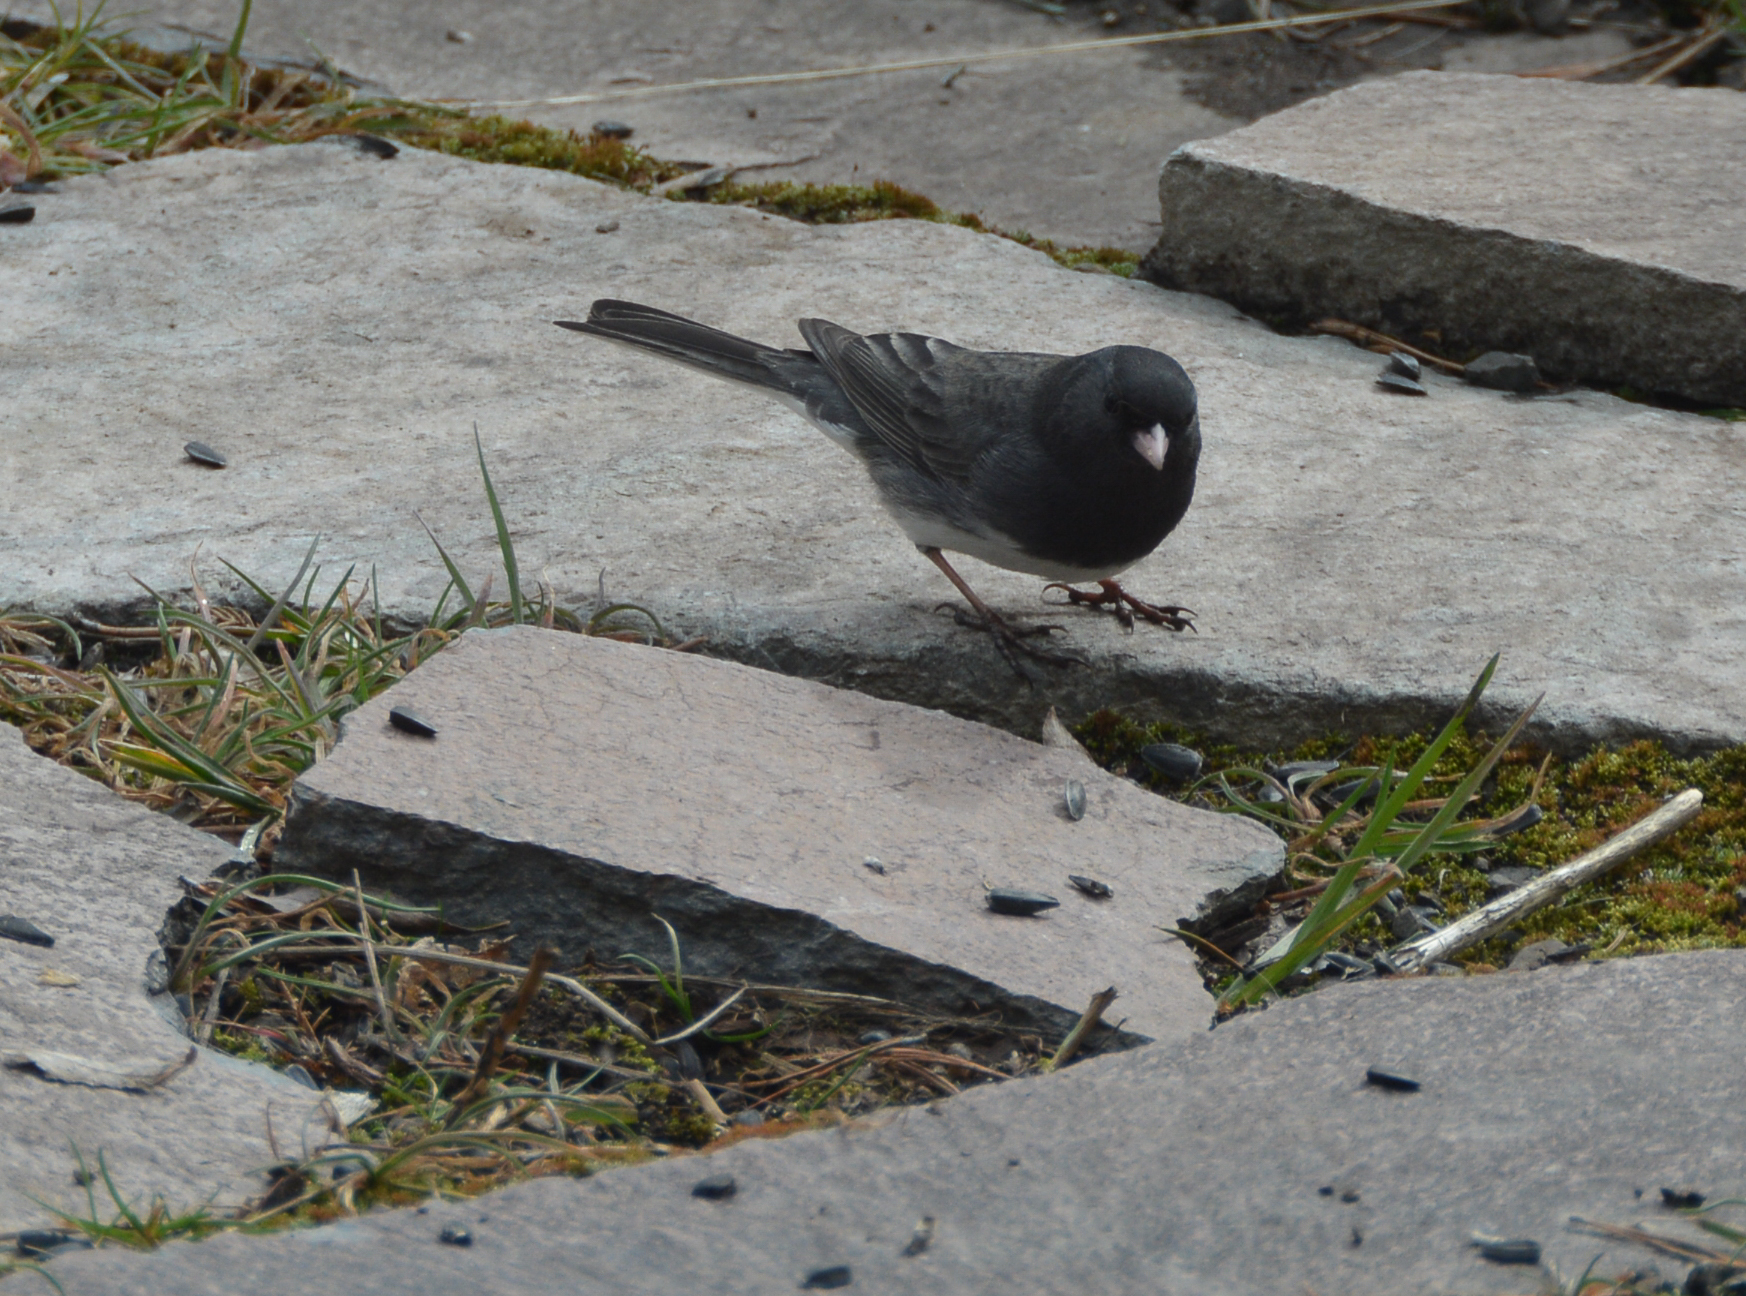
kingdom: Animalia
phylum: Chordata
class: Aves
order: Passeriformes
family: Passerellidae
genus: Junco
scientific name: Junco hyemalis
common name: Dark-eyed junco
